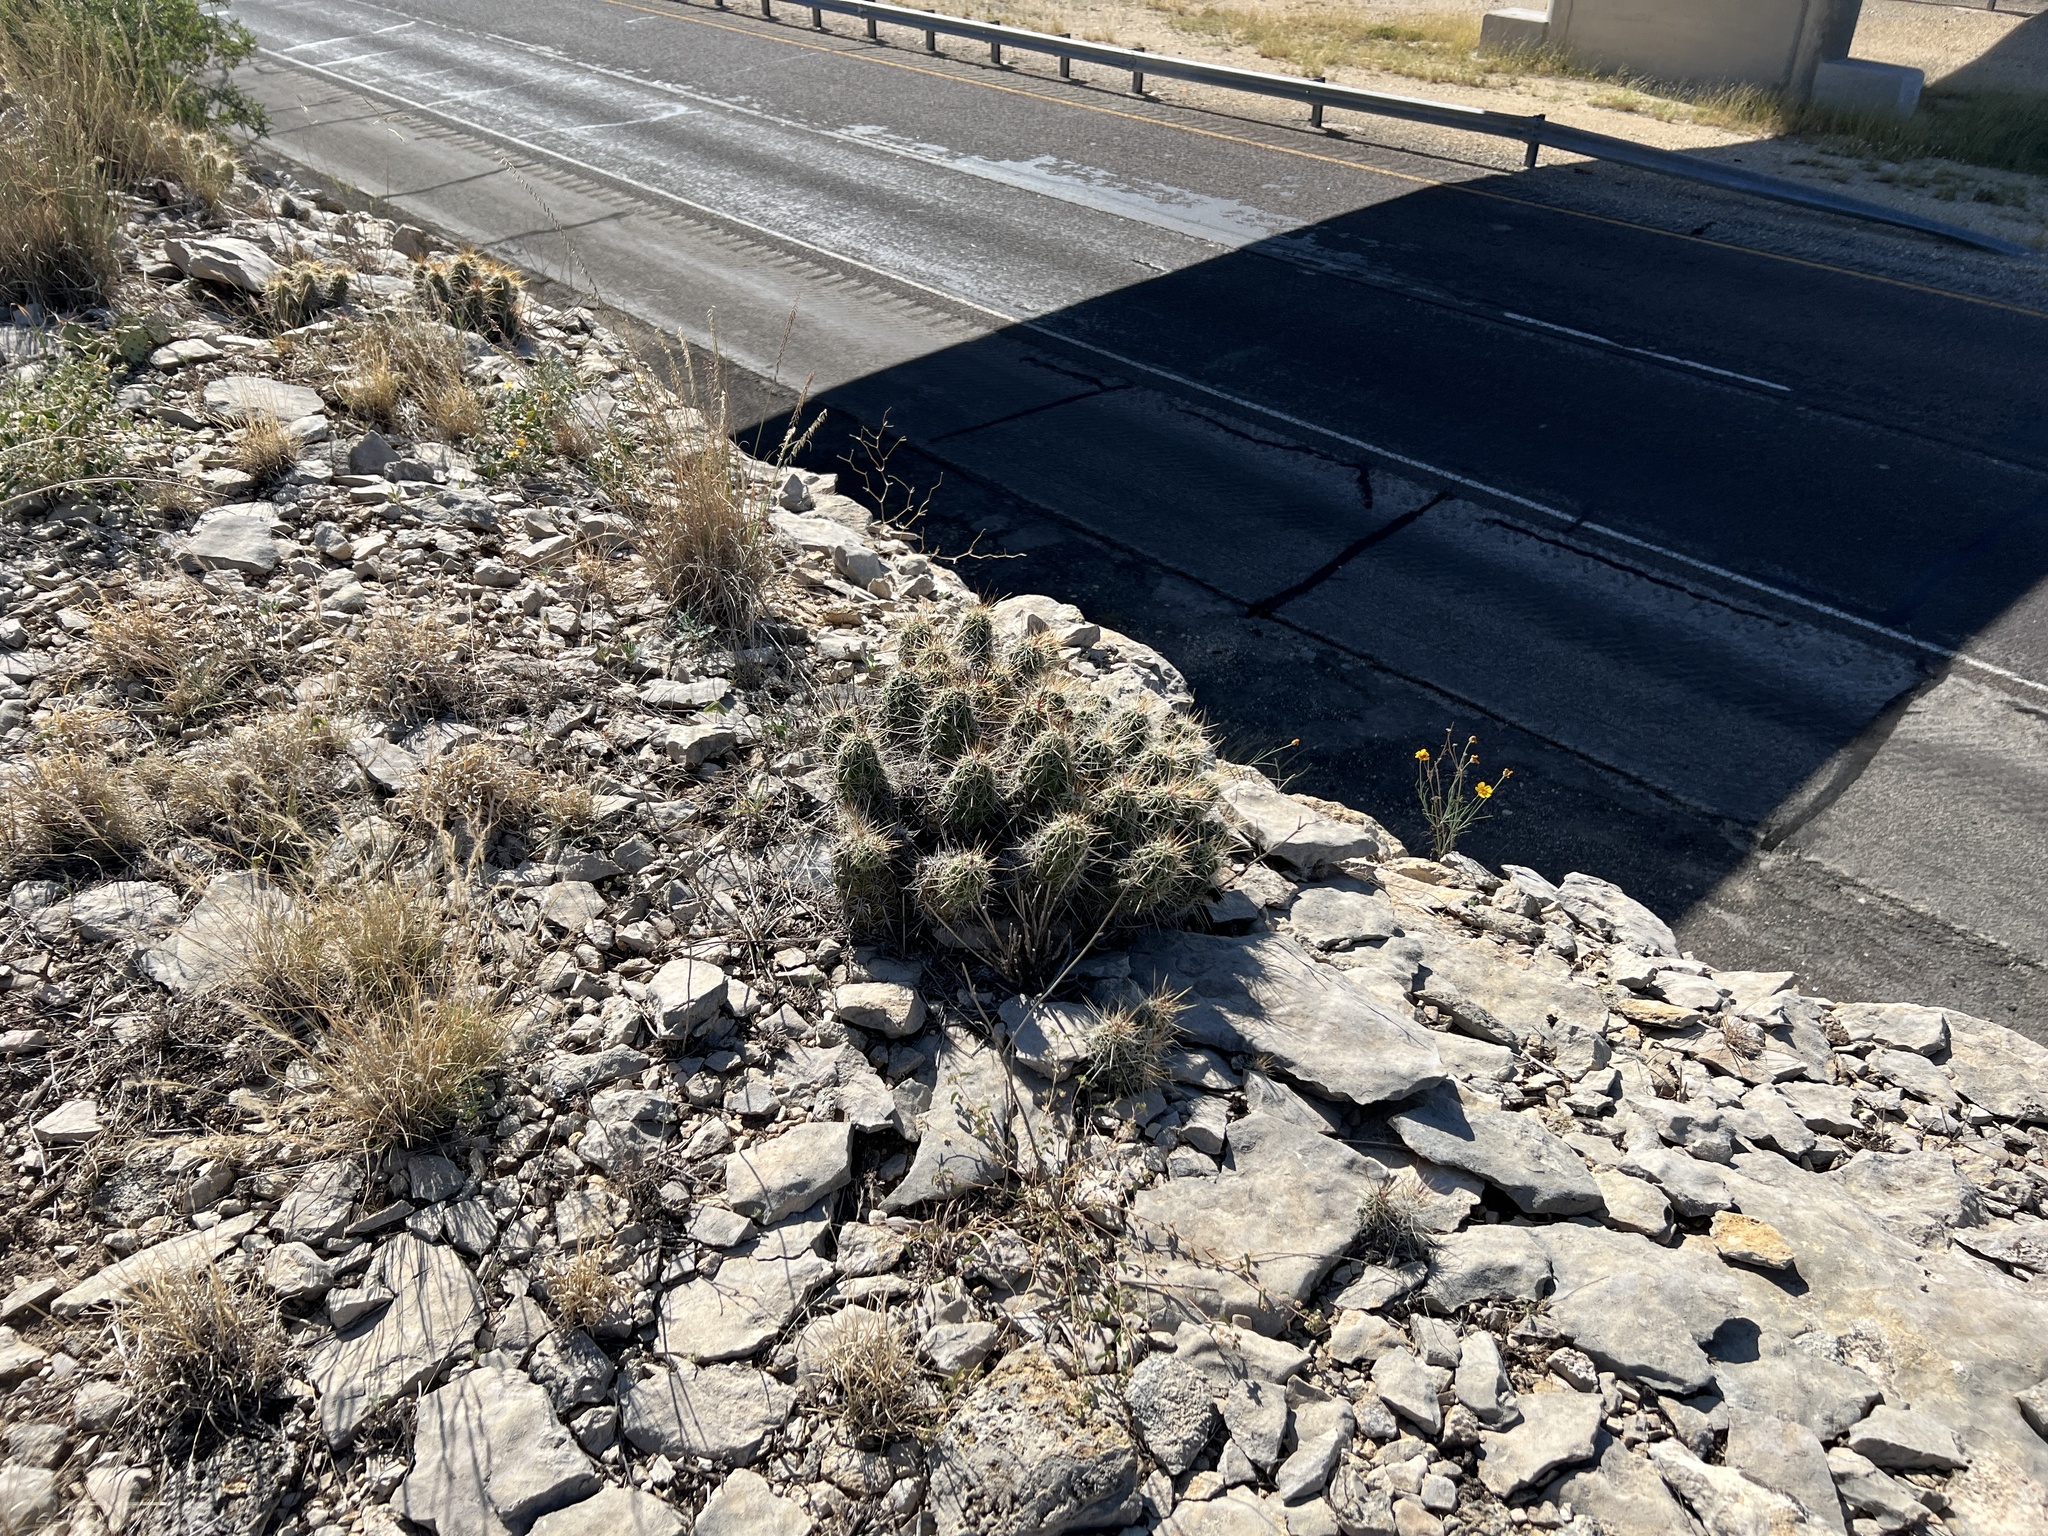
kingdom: Plantae
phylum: Tracheophyta
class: Magnoliopsida
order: Caryophyllales
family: Cactaceae
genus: Echinocereus
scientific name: Echinocereus enneacanthus
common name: Pitaya
